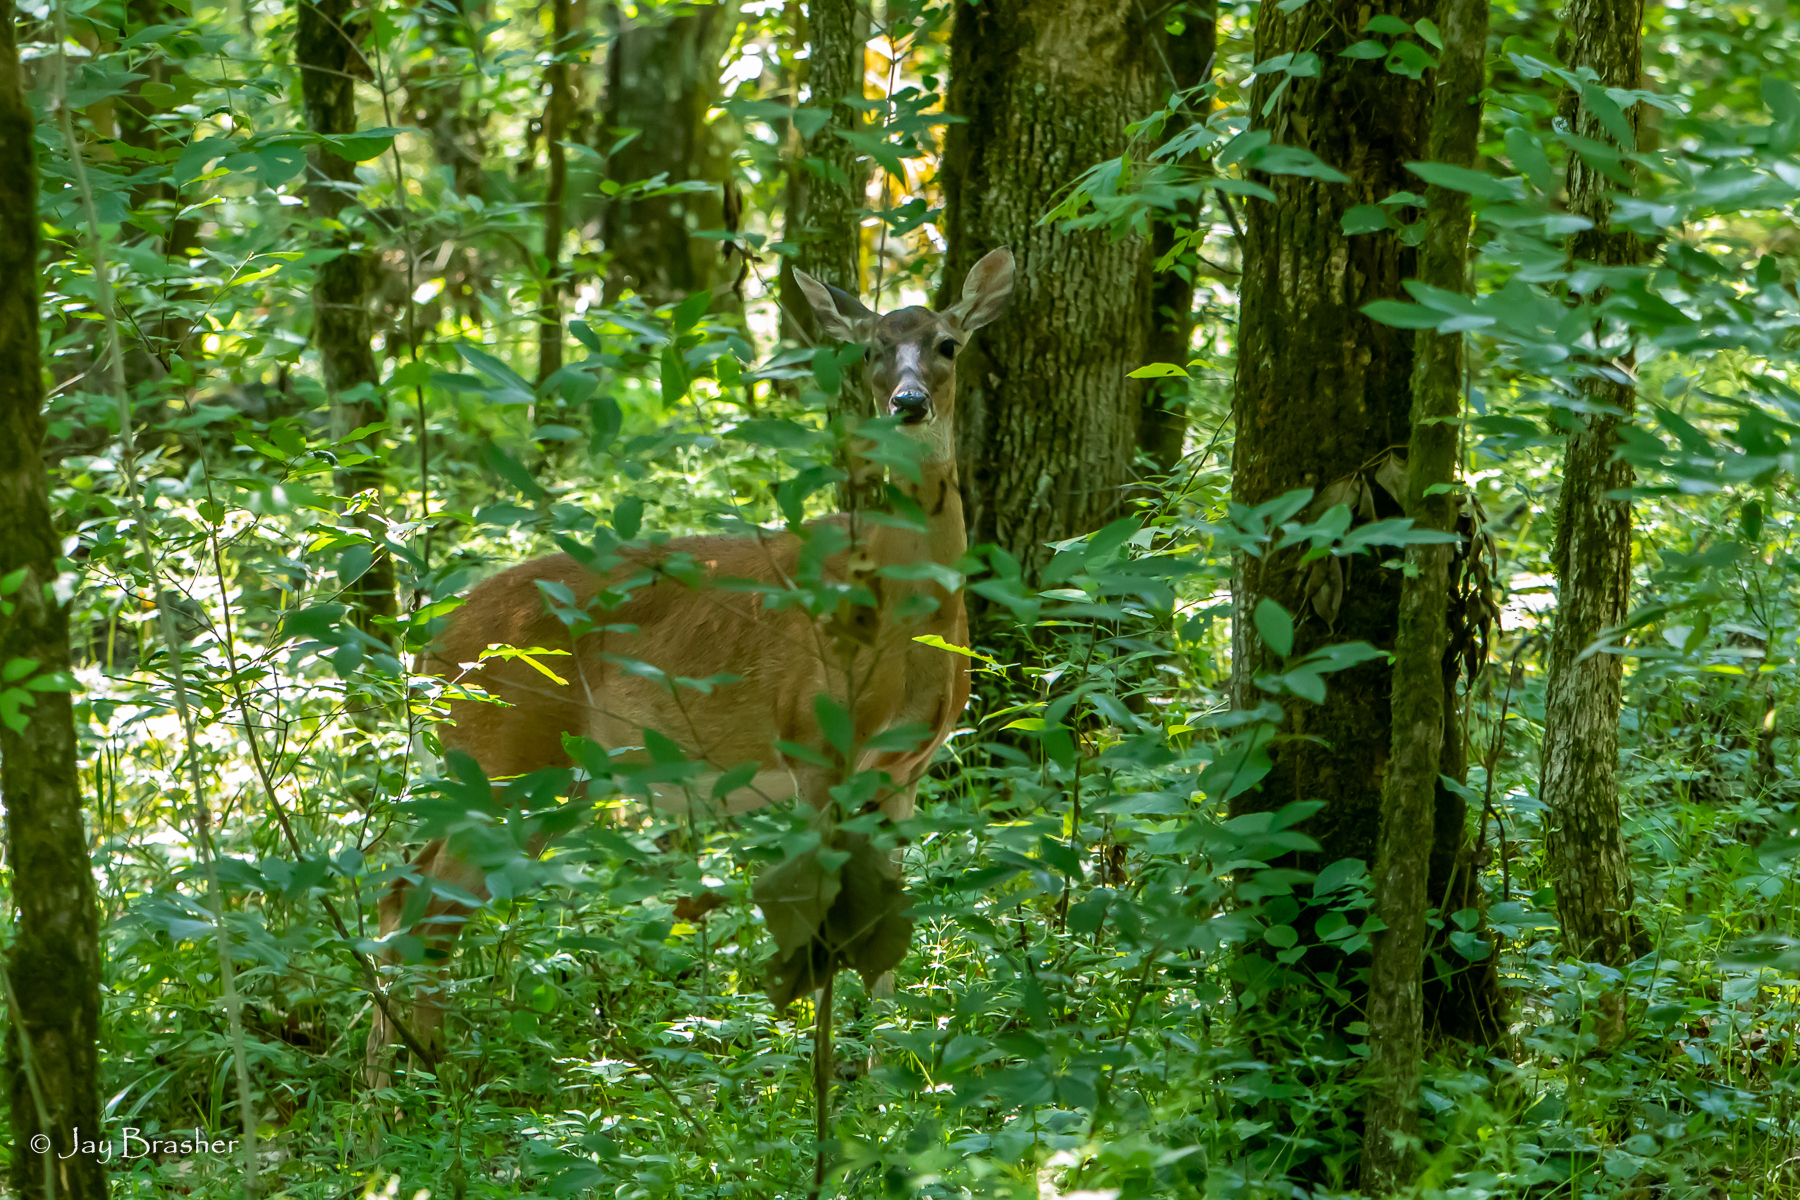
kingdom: Animalia
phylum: Chordata
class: Mammalia
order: Artiodactyla
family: Cervidae
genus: Odocoileus
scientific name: Odocoileus virginianus
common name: White-tailed deer
